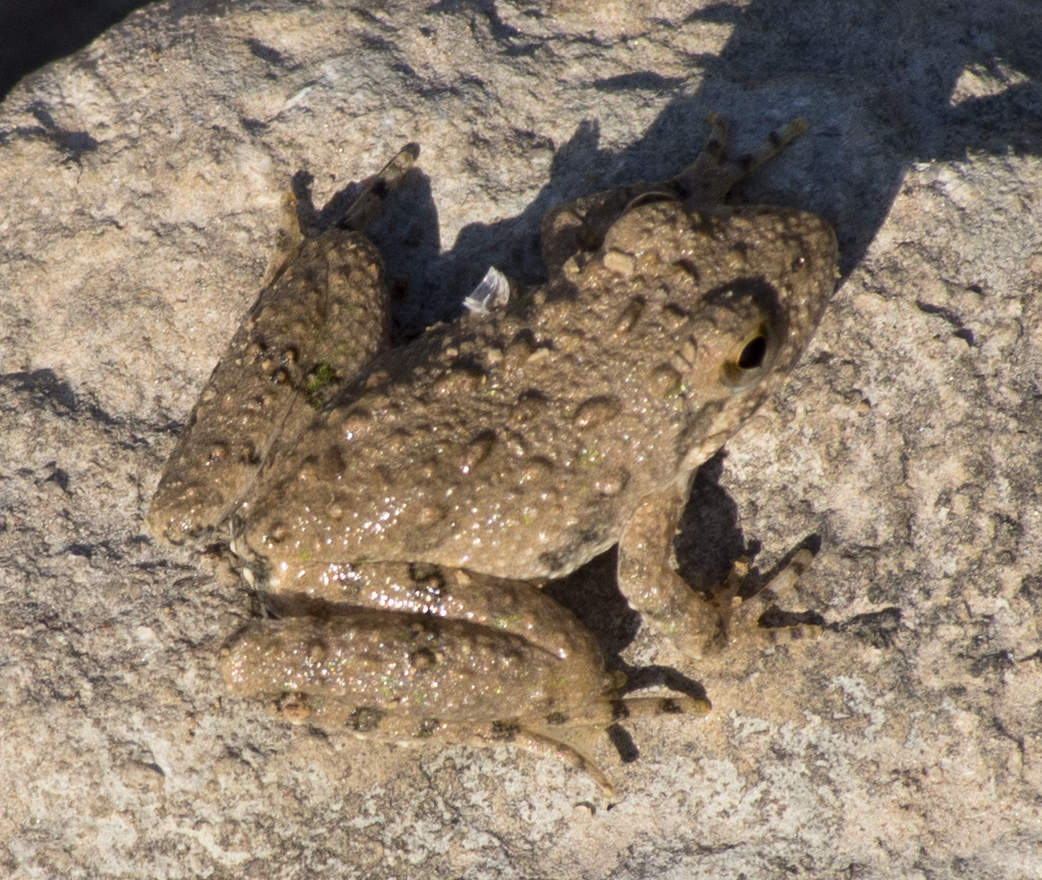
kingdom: Animalia
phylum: Chordata
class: Amphibia
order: Anura
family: Hylidae
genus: Acris
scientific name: Acris blanchardi
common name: Blanchard's cricket frog
